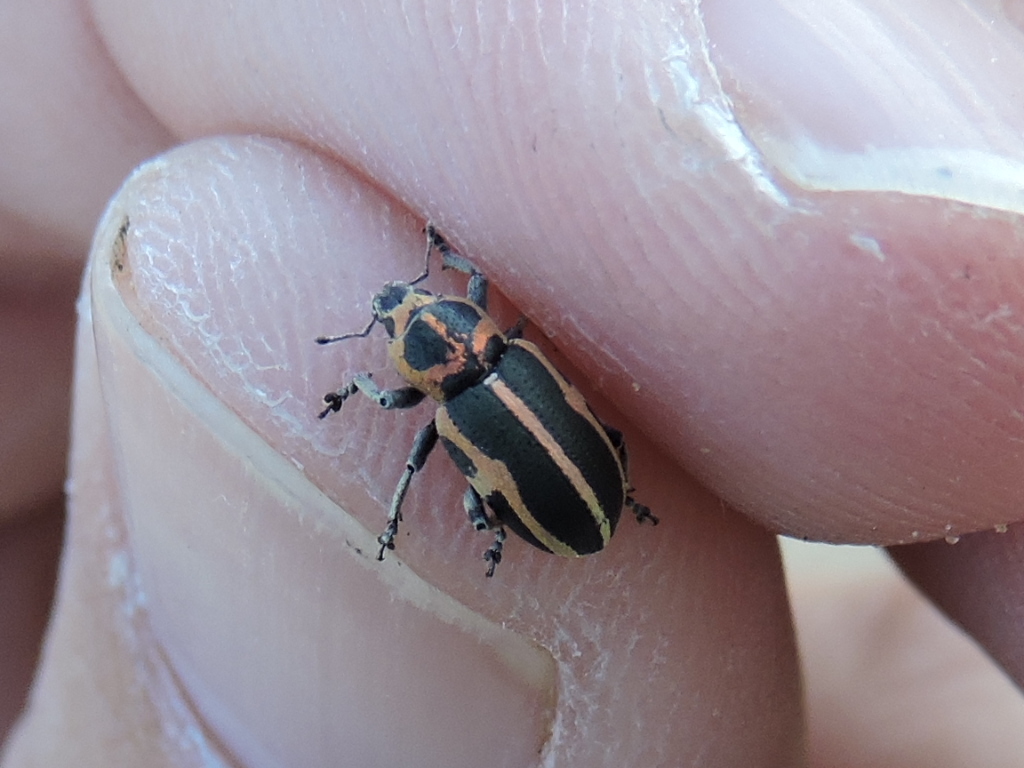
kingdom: Animalia
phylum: Arthropoda
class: Insecta
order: Coleoptera
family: Curculionidae
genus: Eudiagogus
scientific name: Eudiagogus pulcher
